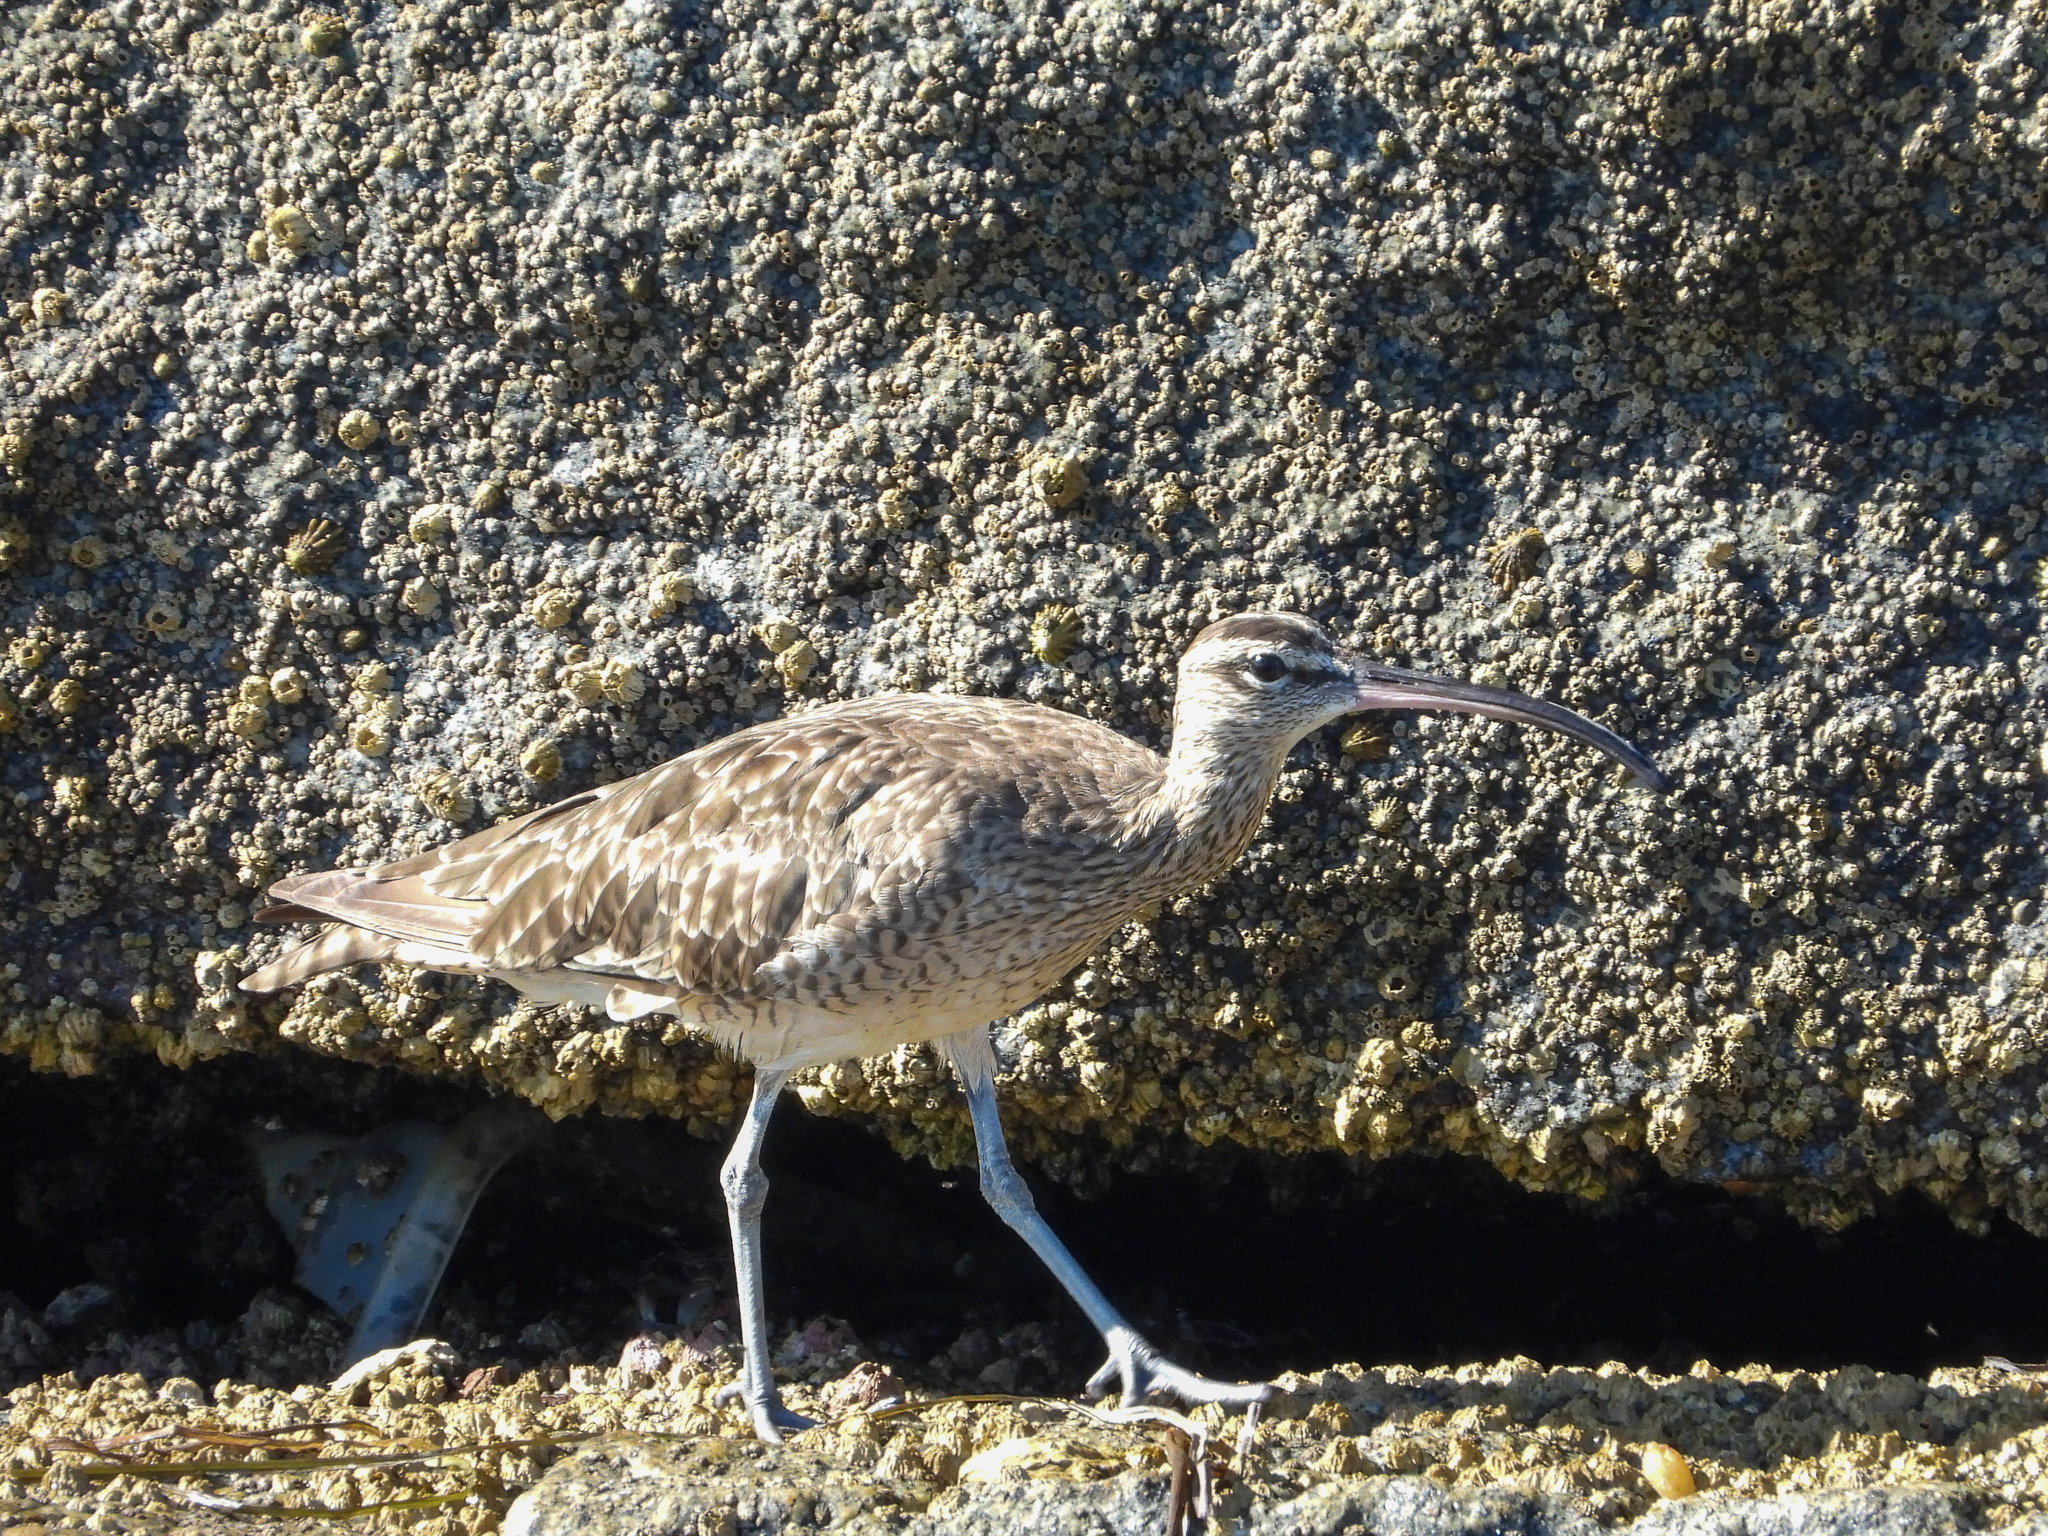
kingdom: Animalia
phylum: Chordata
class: Aves
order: Charadriiformes
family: Scolopacidae
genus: Numenius
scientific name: Numenius phaeopus
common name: Whimbrel
